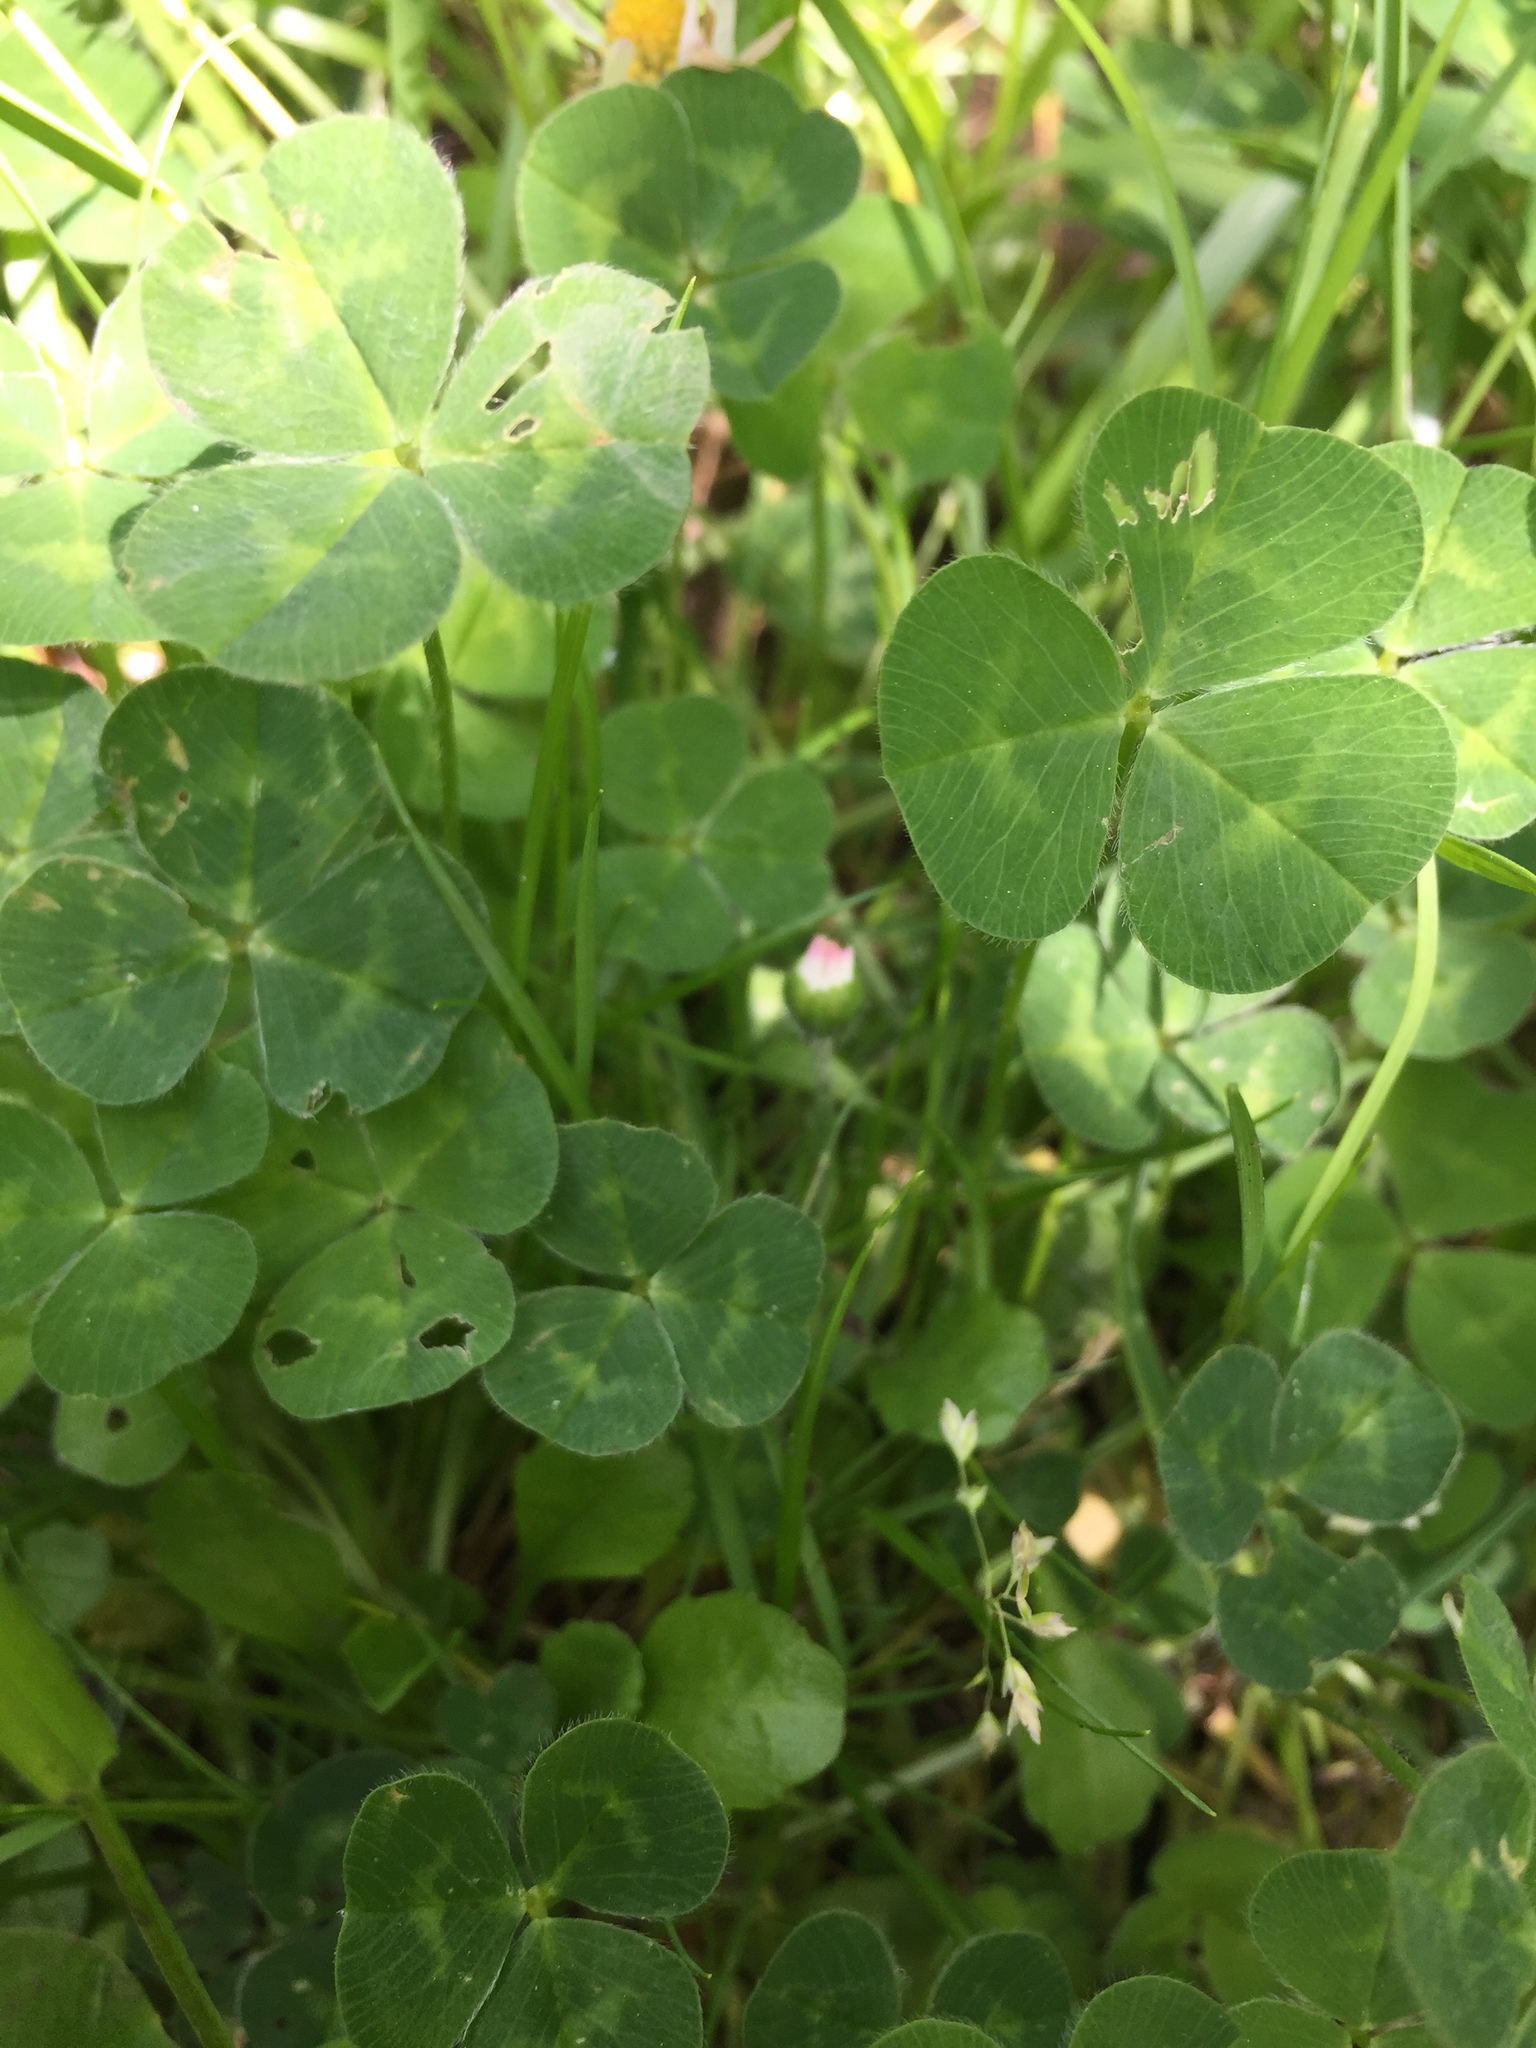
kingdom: Plantae
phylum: Tracheophyta
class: Magnoliopsida
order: Fabales
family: Fabaceae
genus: Trifolium
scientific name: Trifolium repens
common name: White clover
